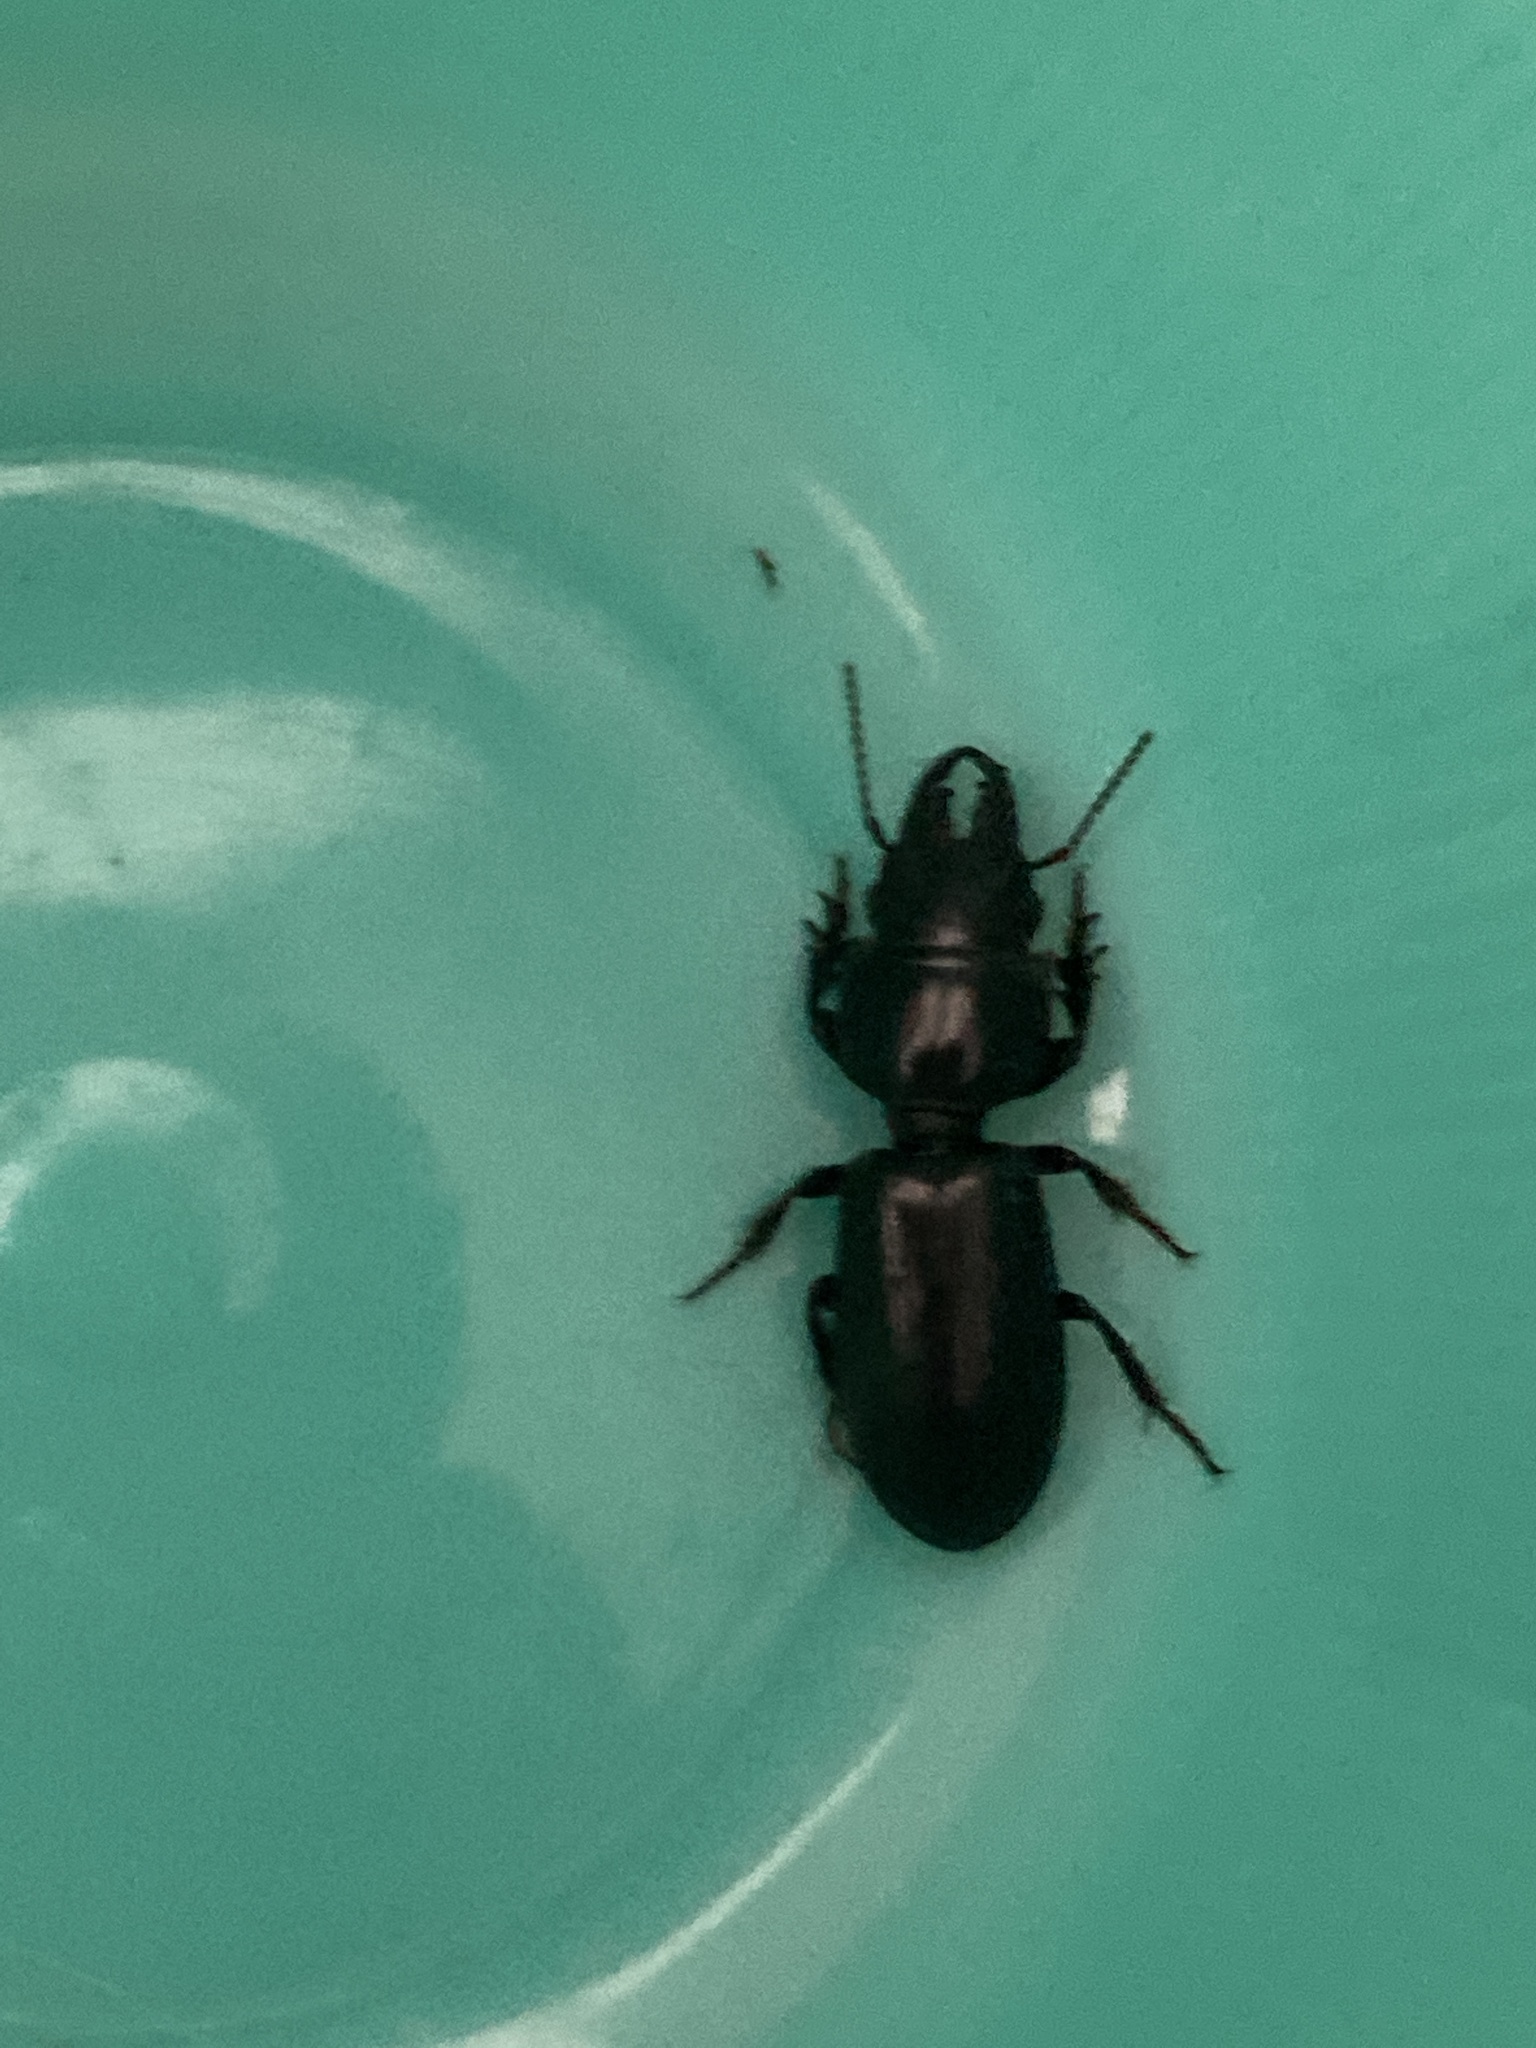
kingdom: Animalia
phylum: Arthropoda
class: Insecta
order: Coleoptera
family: Carabidae
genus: Scarites
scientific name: Scarites subterraneus
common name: Big-headed ground beetle
